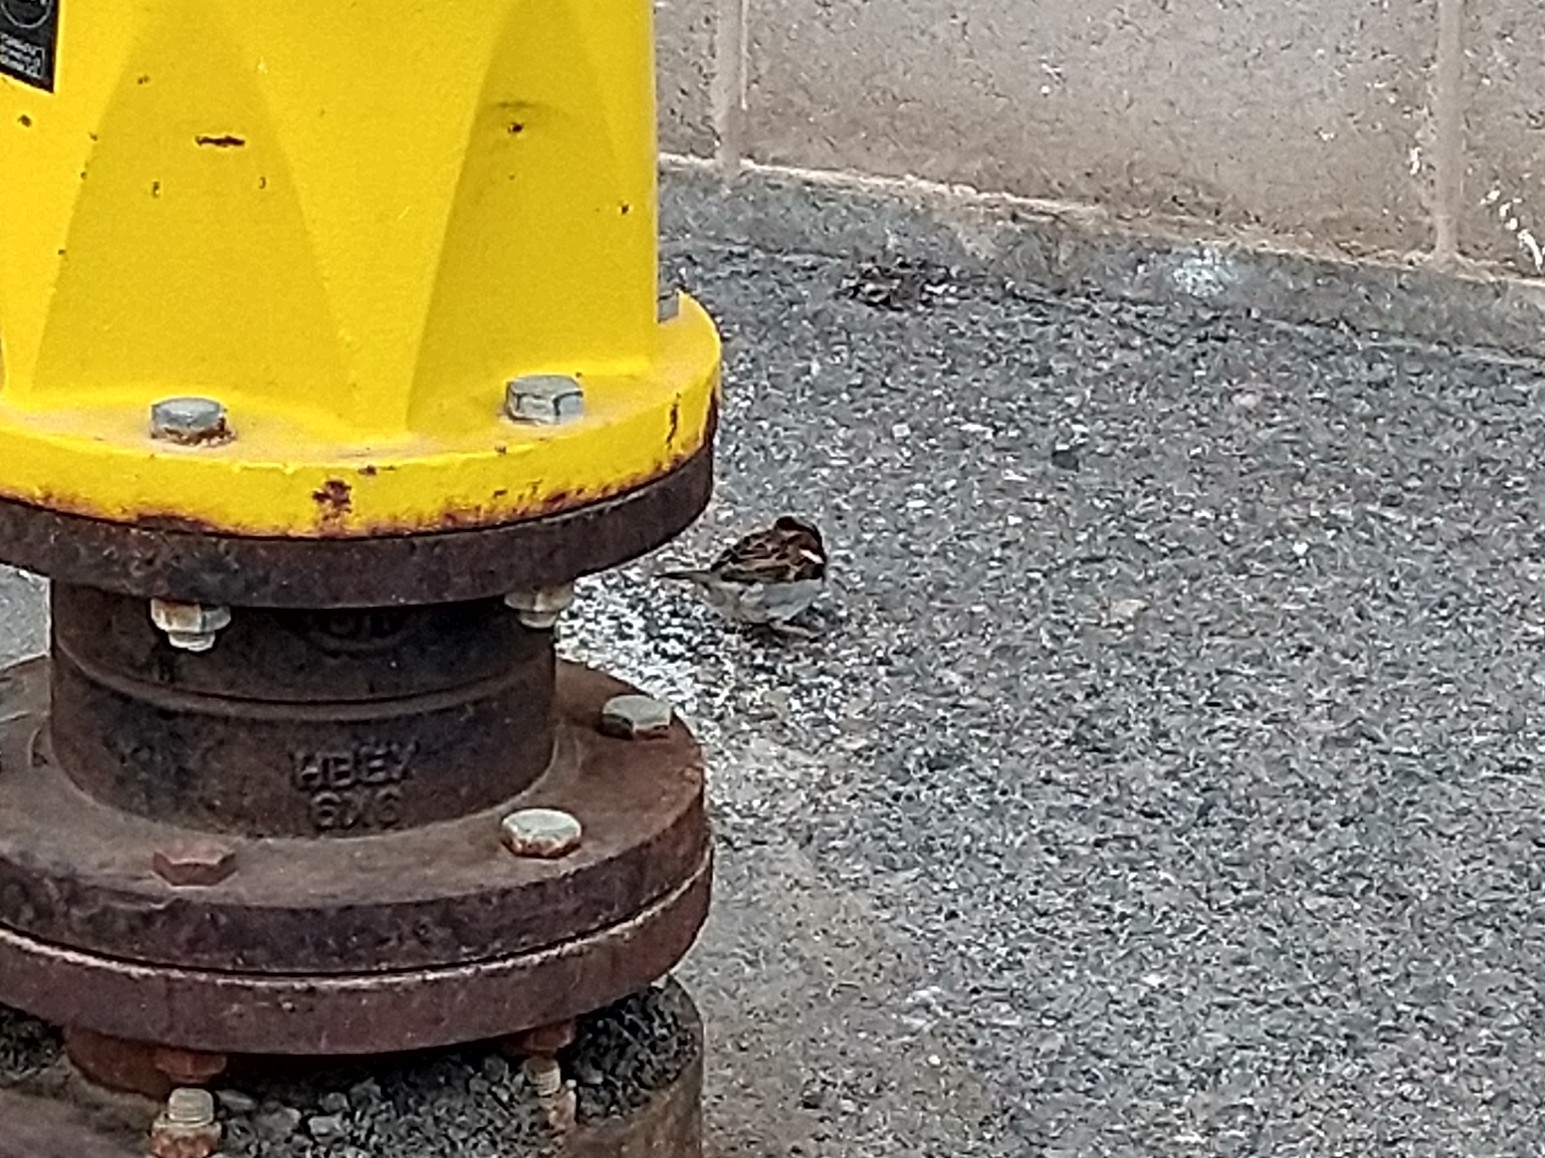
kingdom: Animalia
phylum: Chordata
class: Aves
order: Passeriformes
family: Passeridae
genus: Passer
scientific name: Passer domesticus
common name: House sparrow
